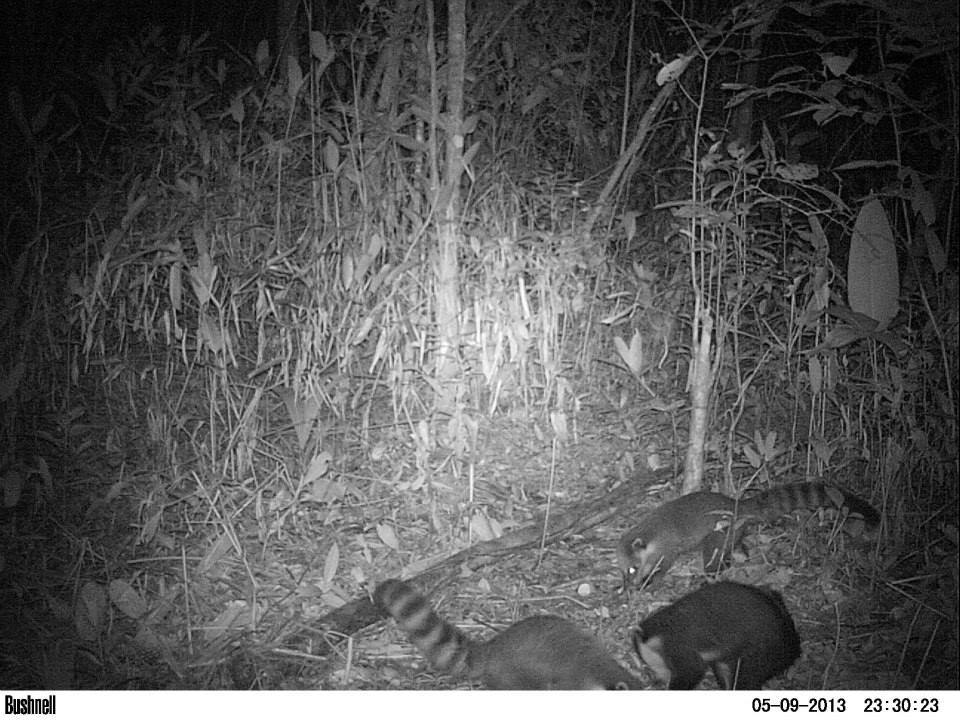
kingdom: Animalia
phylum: Chordata
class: Mammalia
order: Carnivora
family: Procyonidae
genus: Nasua
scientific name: Nasua nasua
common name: South american coati
